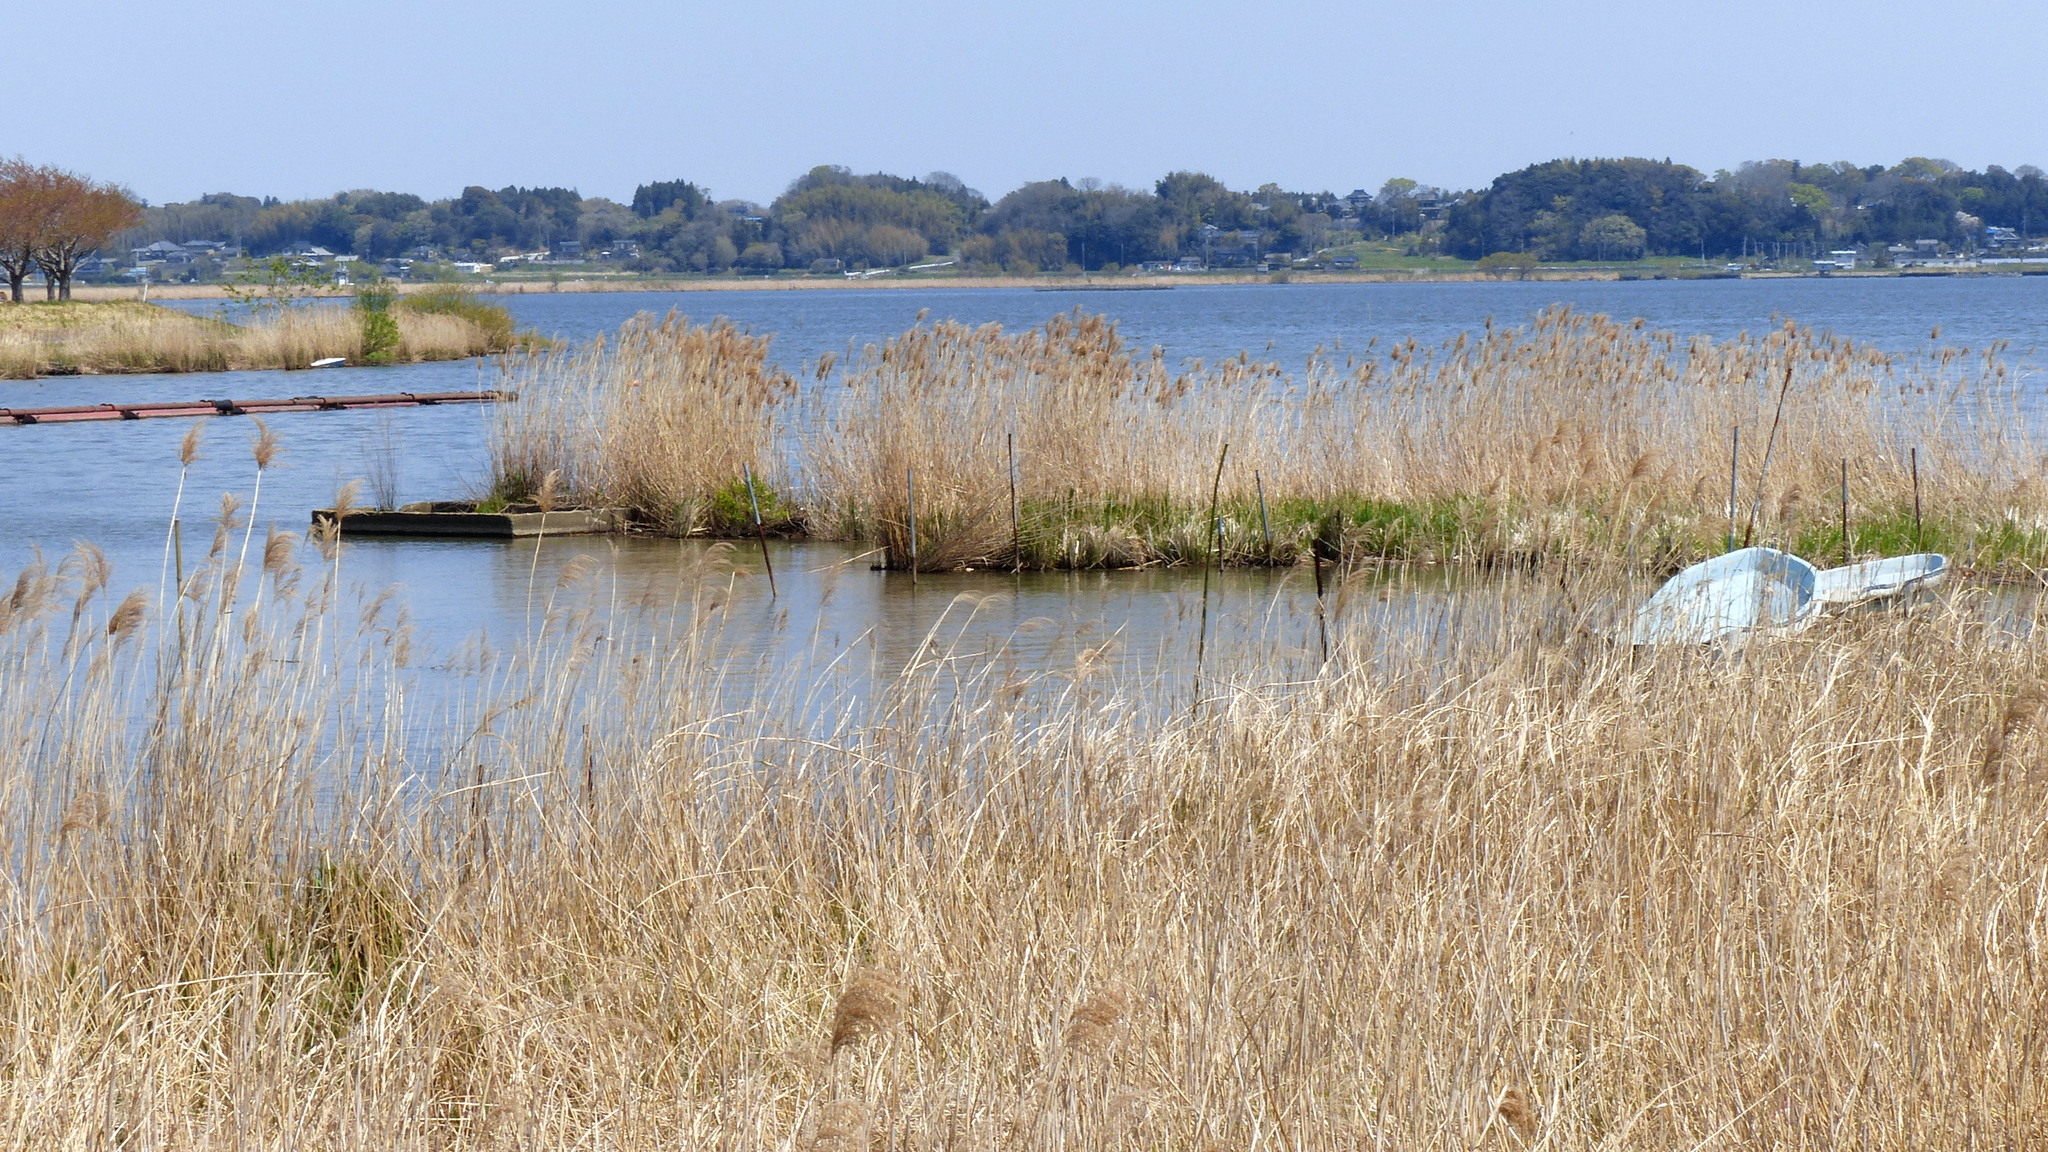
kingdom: Plantae
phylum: Tracheophyta
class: Liliopsida
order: Poales
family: Poaceae
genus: Phragmites
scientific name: Phragmites australis
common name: Common reed
